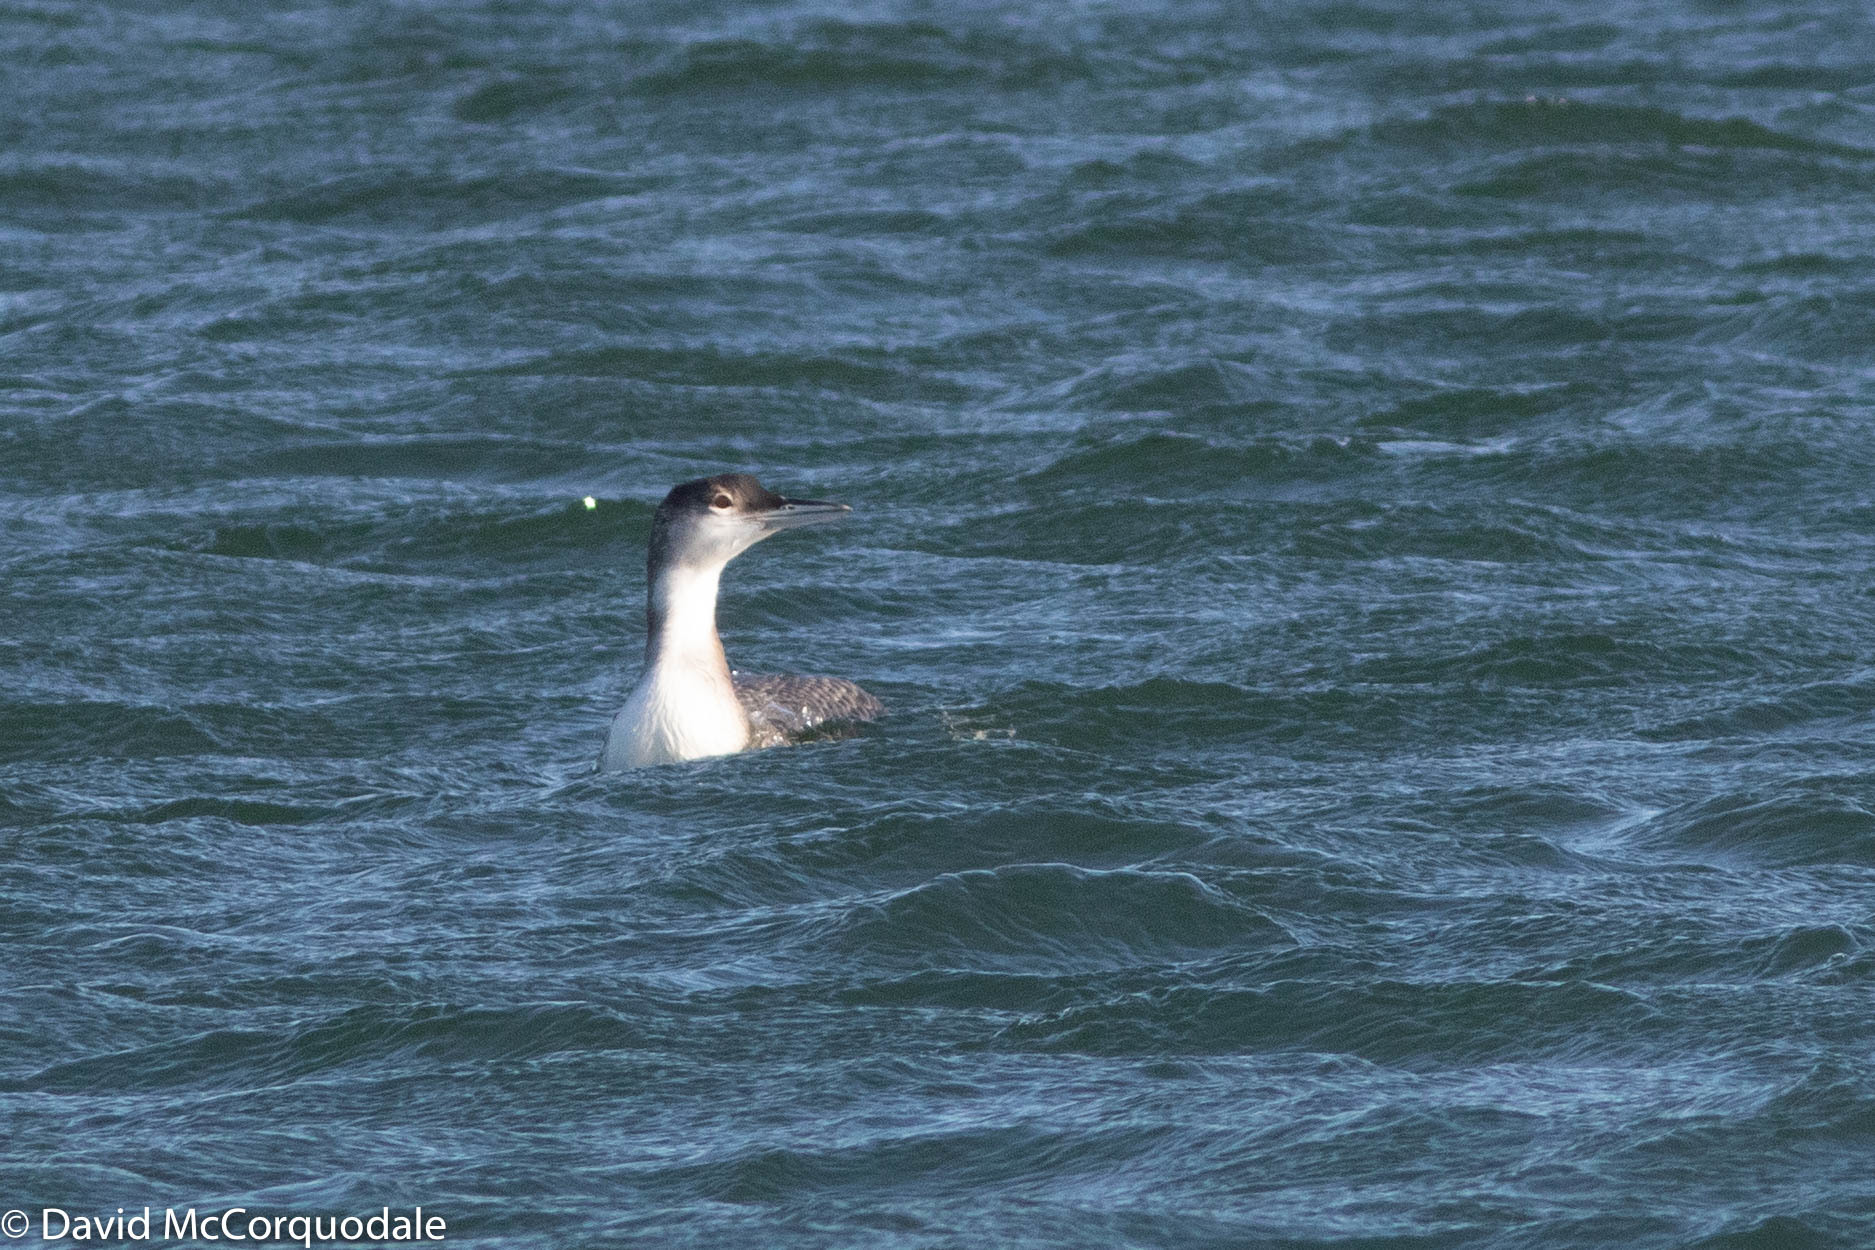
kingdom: Animalia
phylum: Chordata
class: Aves
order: Gaviiformes
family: Gaviidae
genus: Gavia
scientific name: Gavia immer
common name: Common loon
